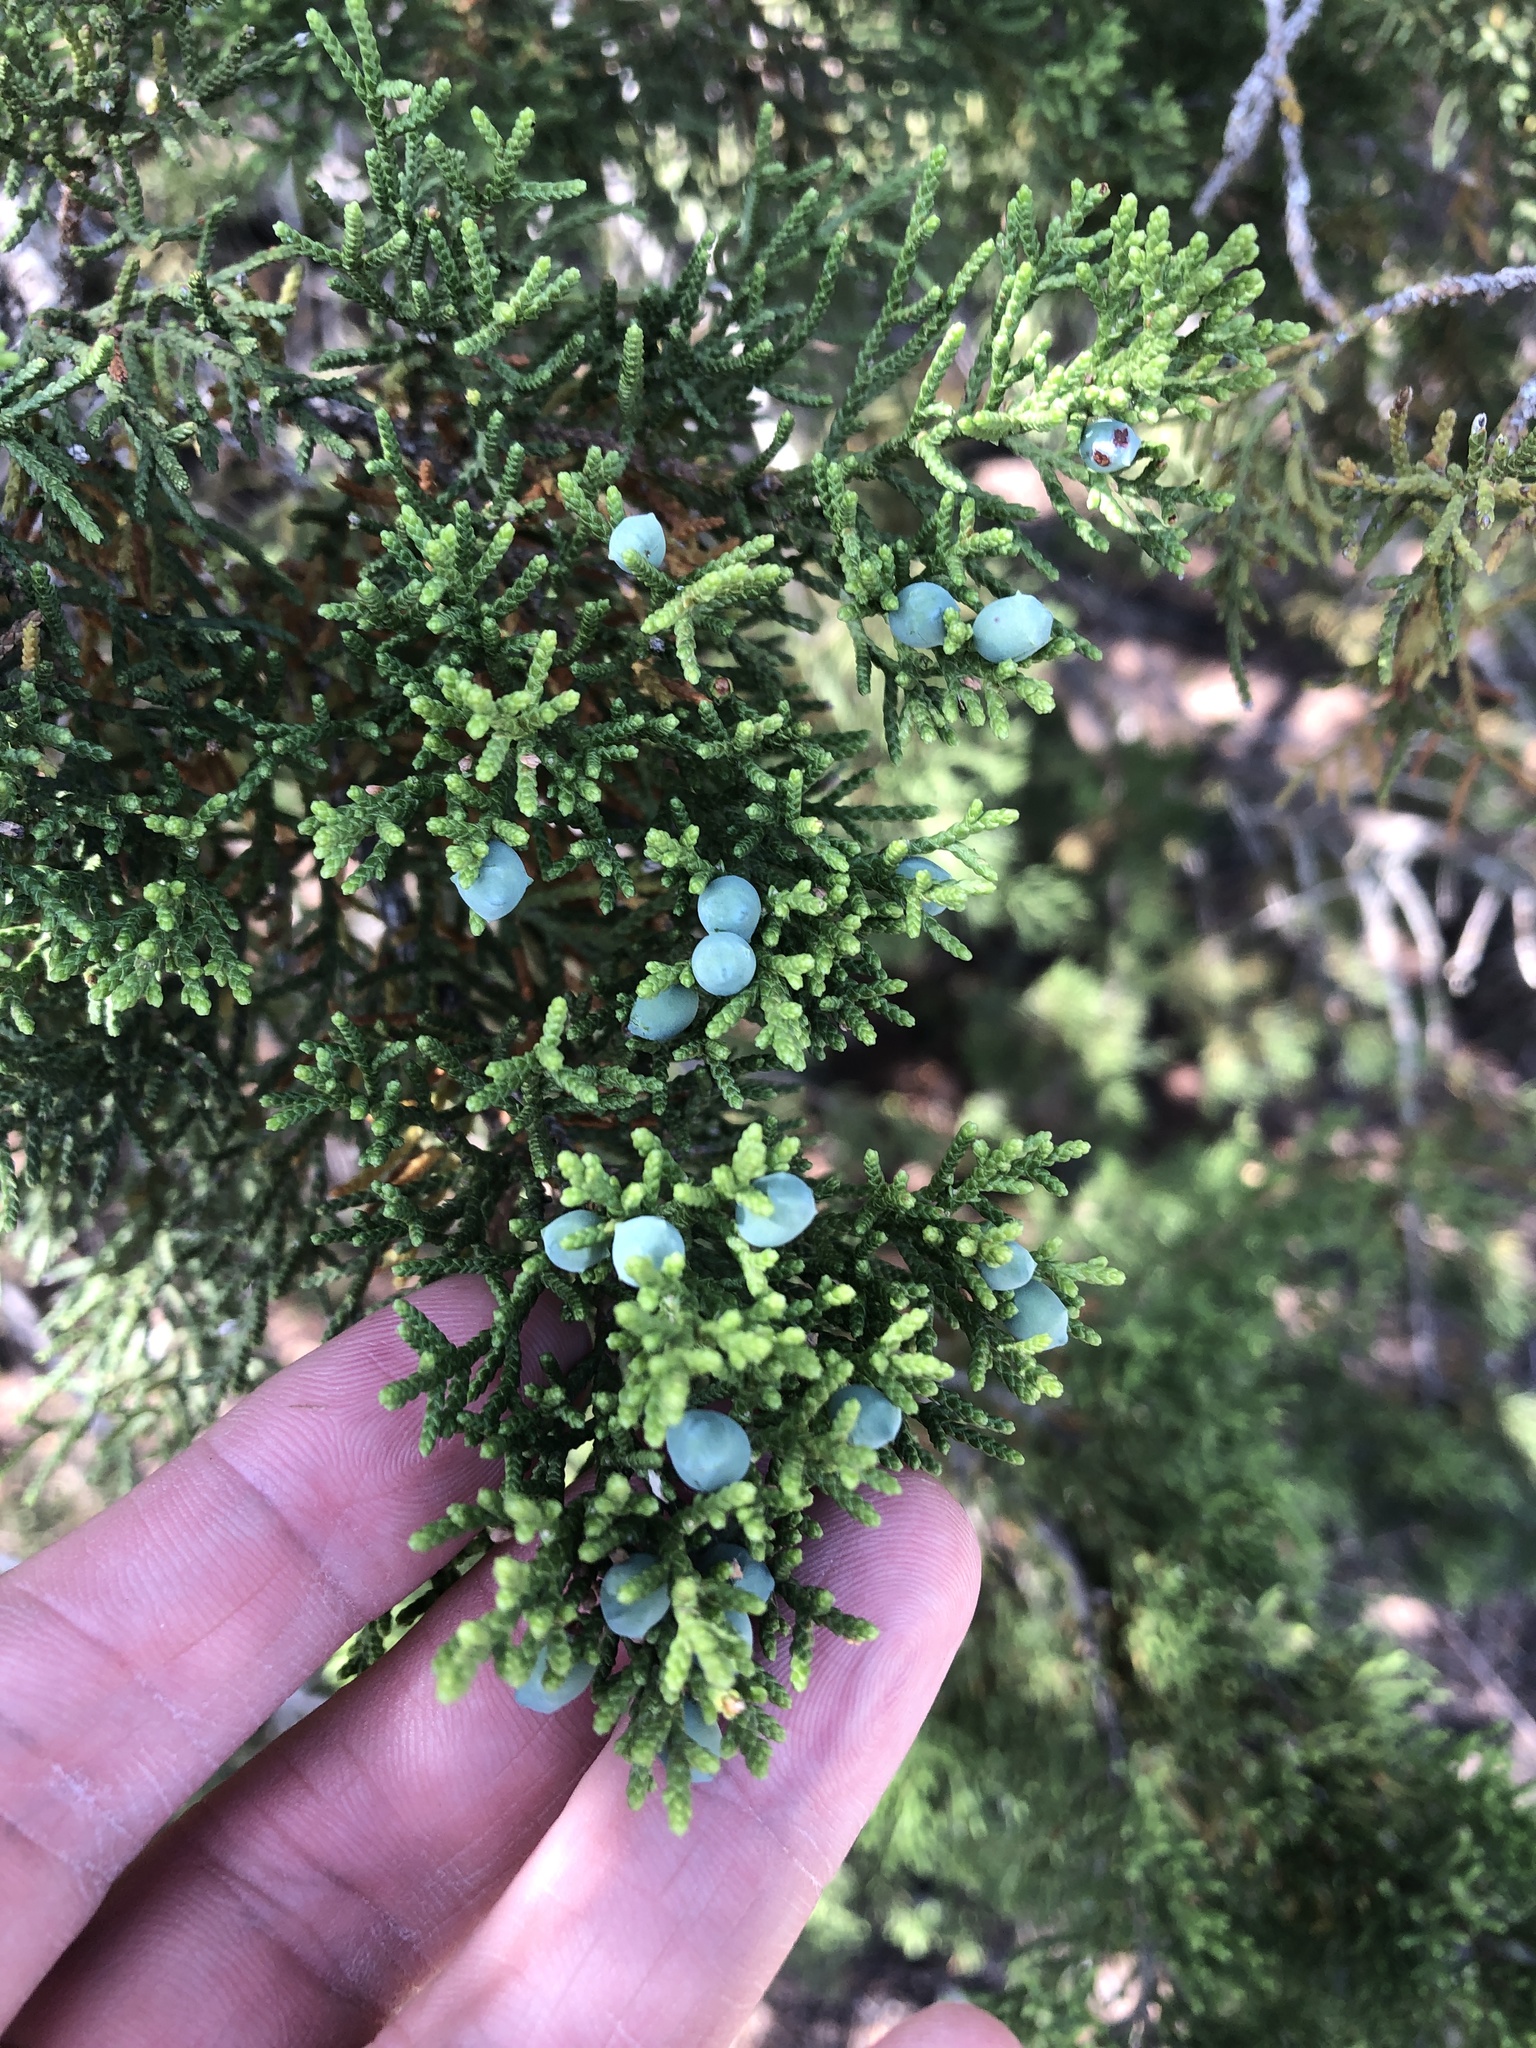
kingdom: Plantae
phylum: Tracheophyta
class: Pinopsida
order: Pinales
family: Cupressaceae
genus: Juniperus
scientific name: Juniperus ashei
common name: Mexican juniper
